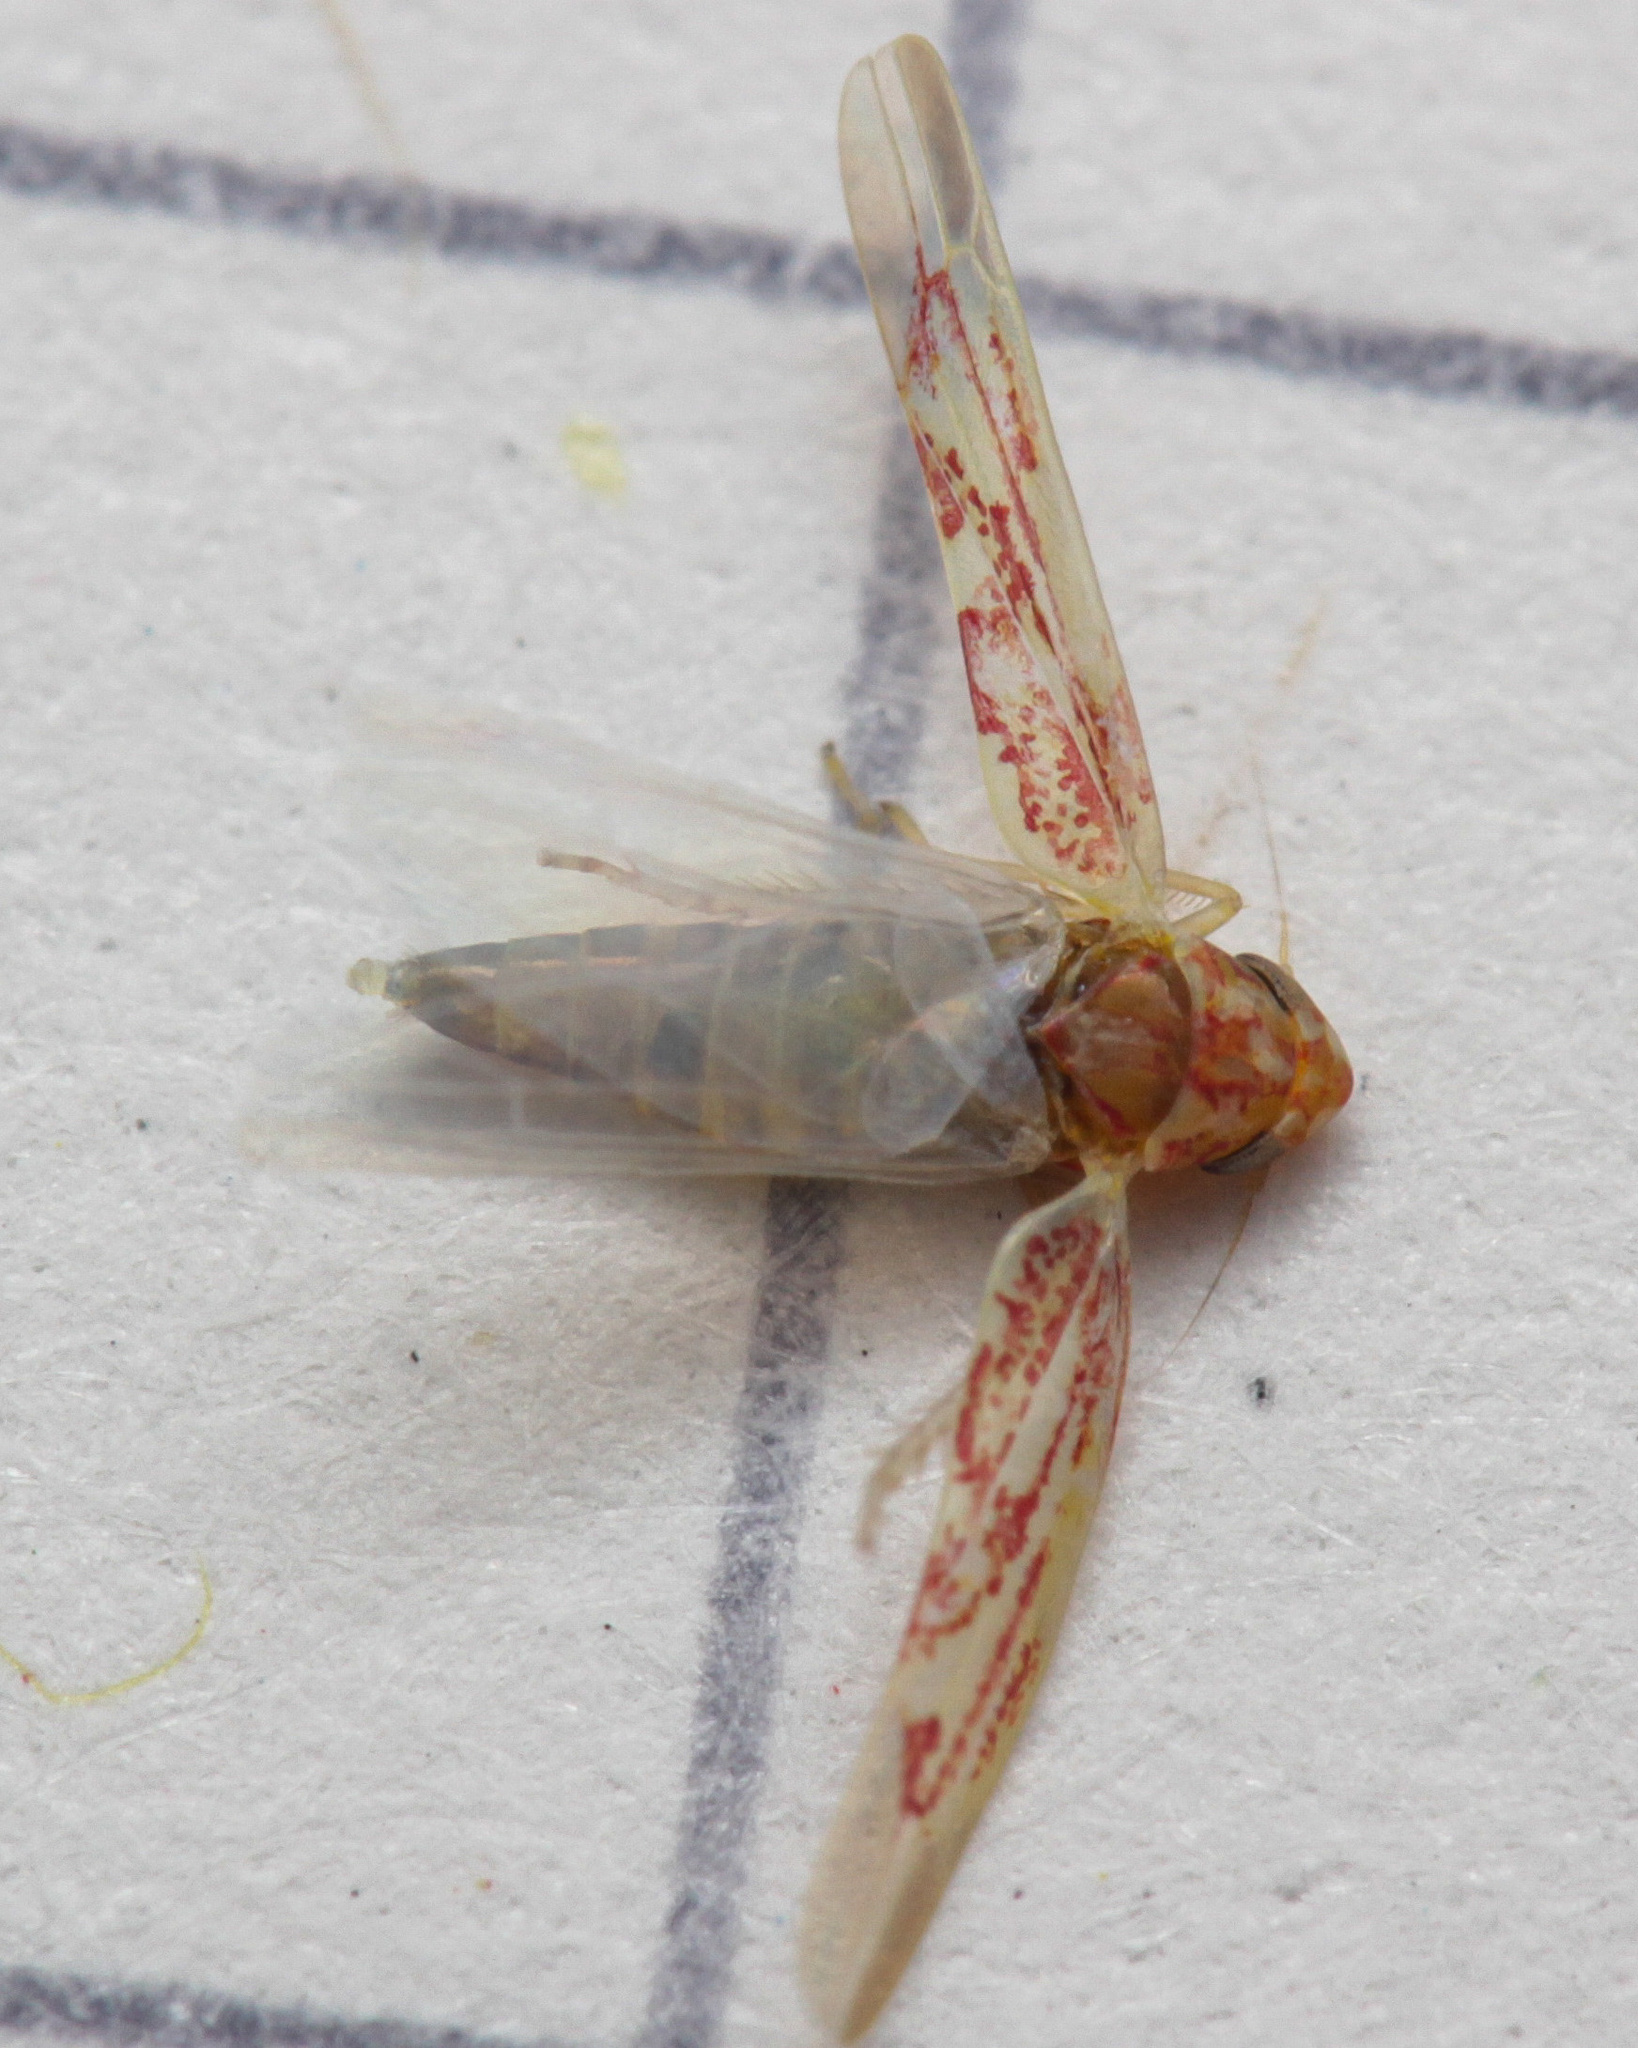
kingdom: Animalia
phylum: Arthropoda
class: Insecta
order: Hemiptera
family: Cicadellidae
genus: Zygina
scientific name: Zygina griseombra
